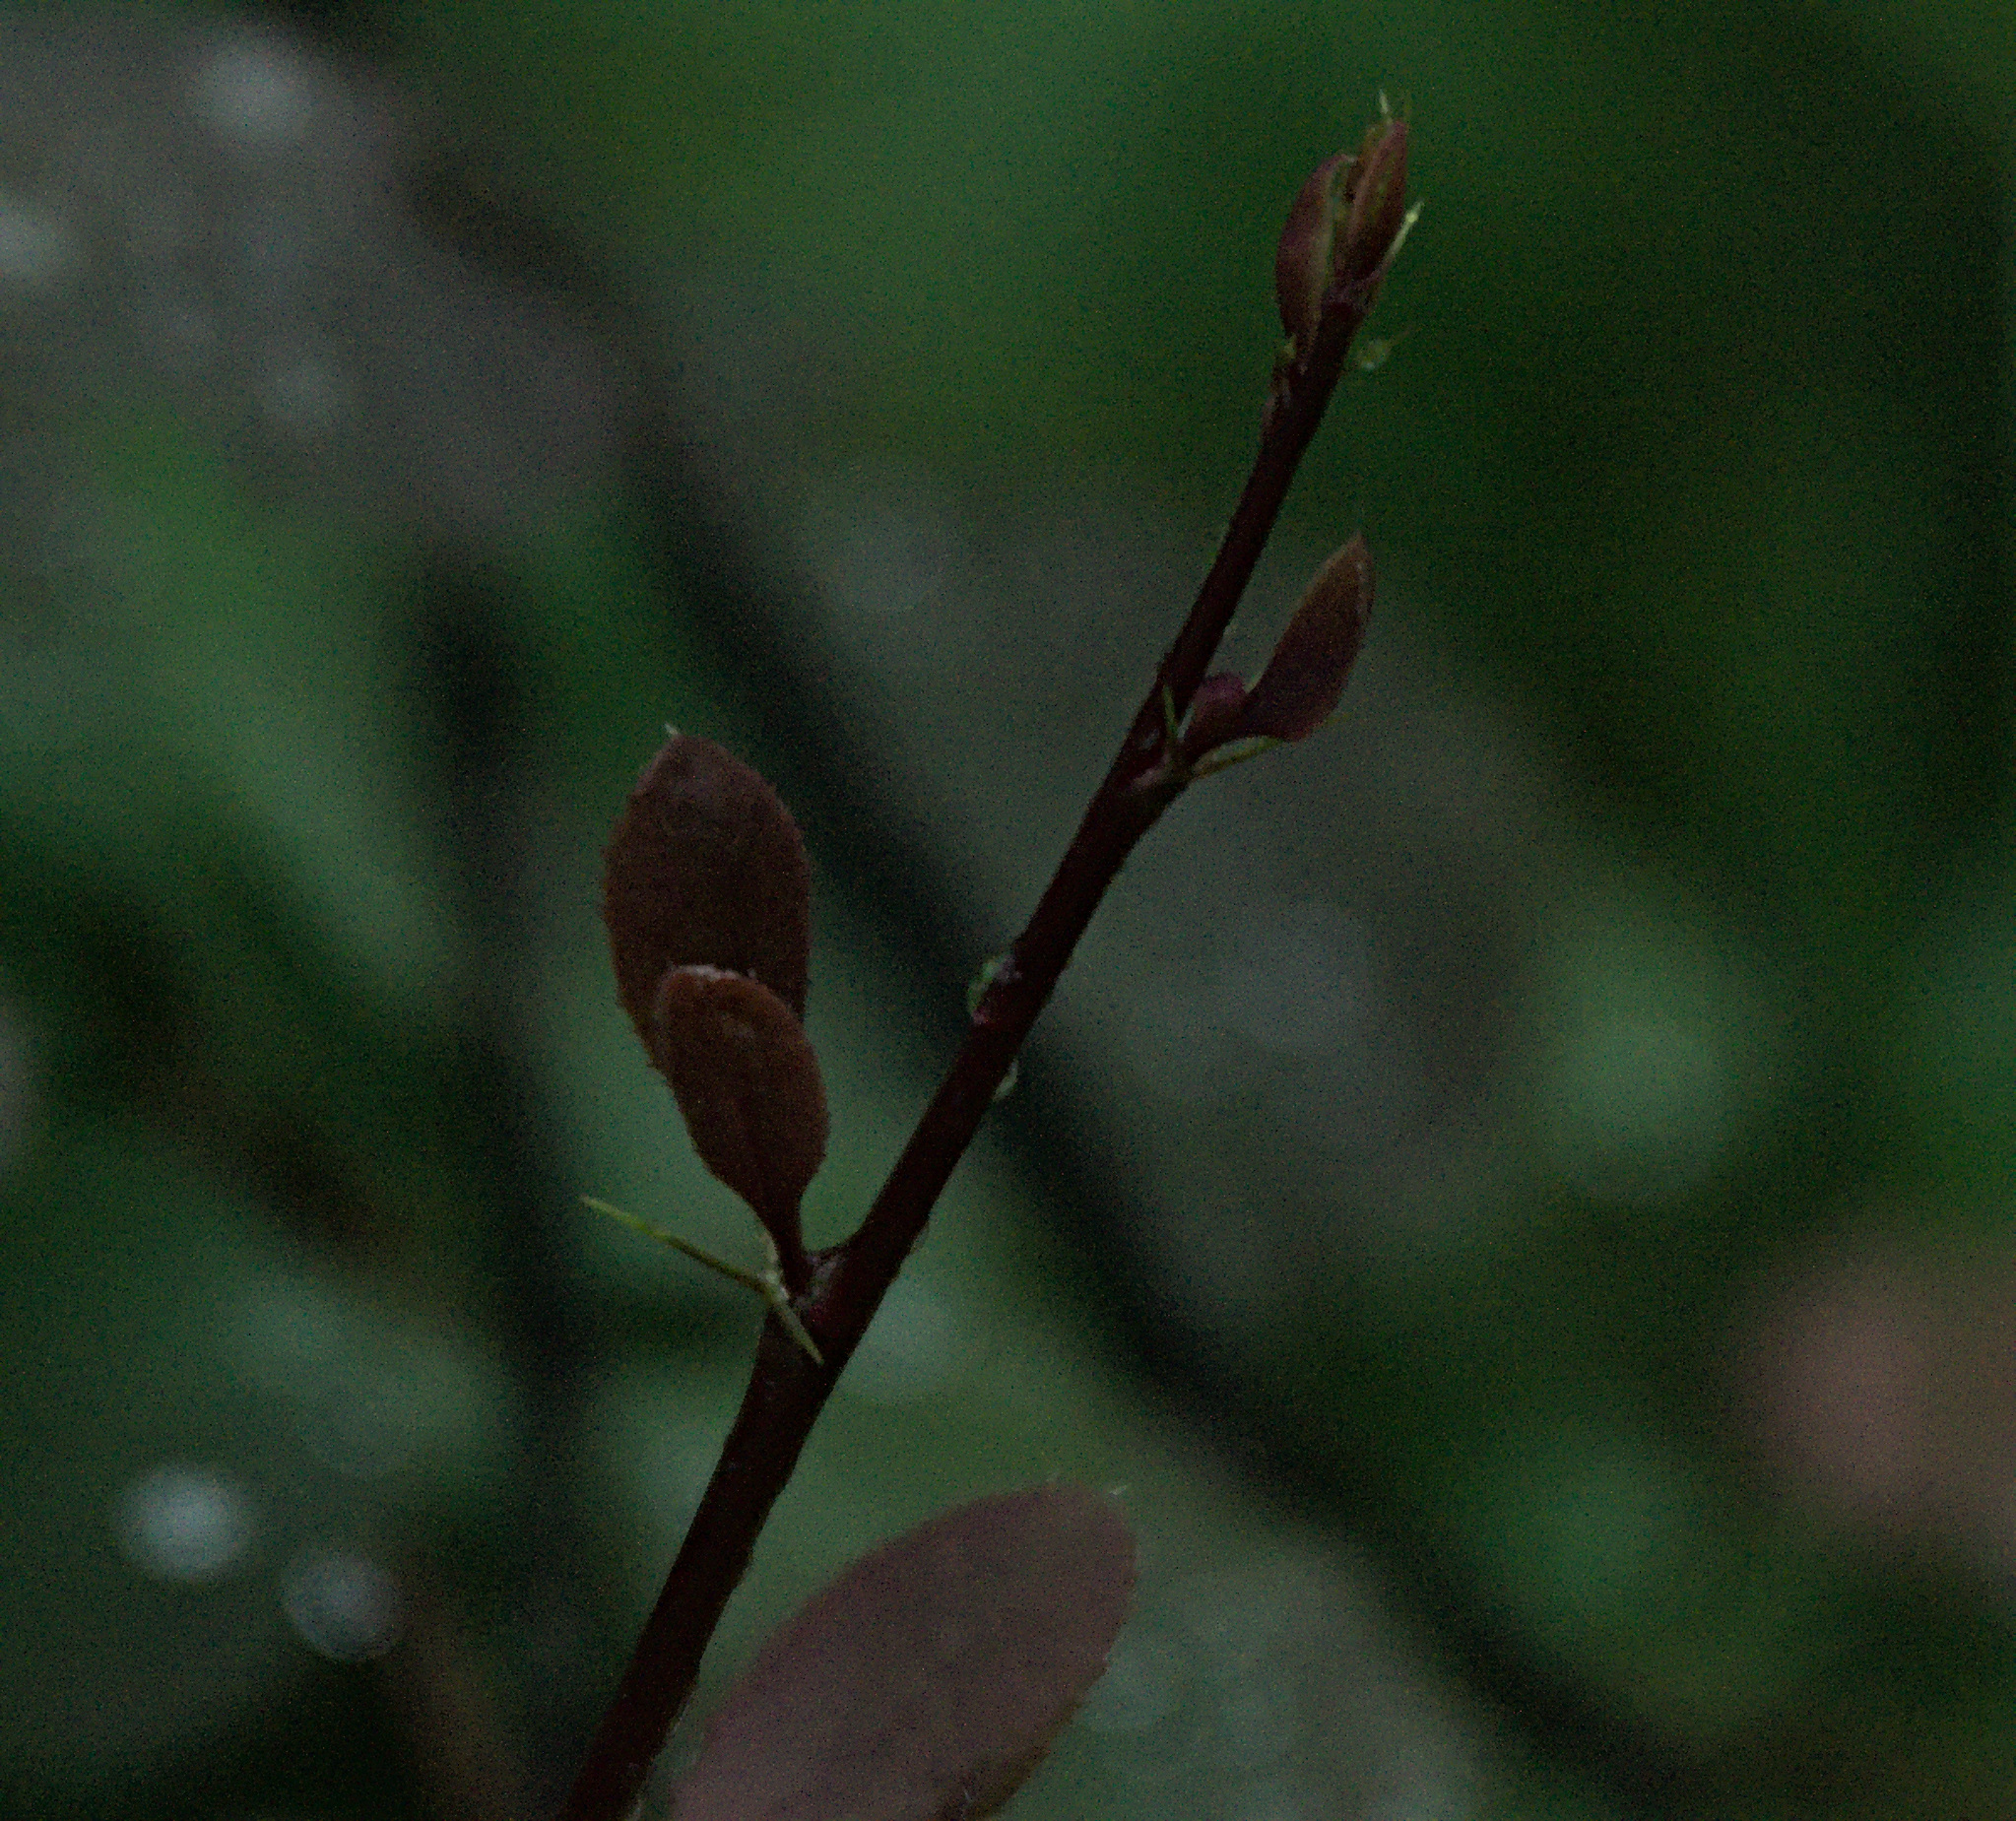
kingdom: Plantae
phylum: Tracheophyta
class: Magnoliopsida
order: Ranunculales
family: Berberidaceae
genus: Berberis
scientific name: Berberis vulgaris
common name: Barberry
